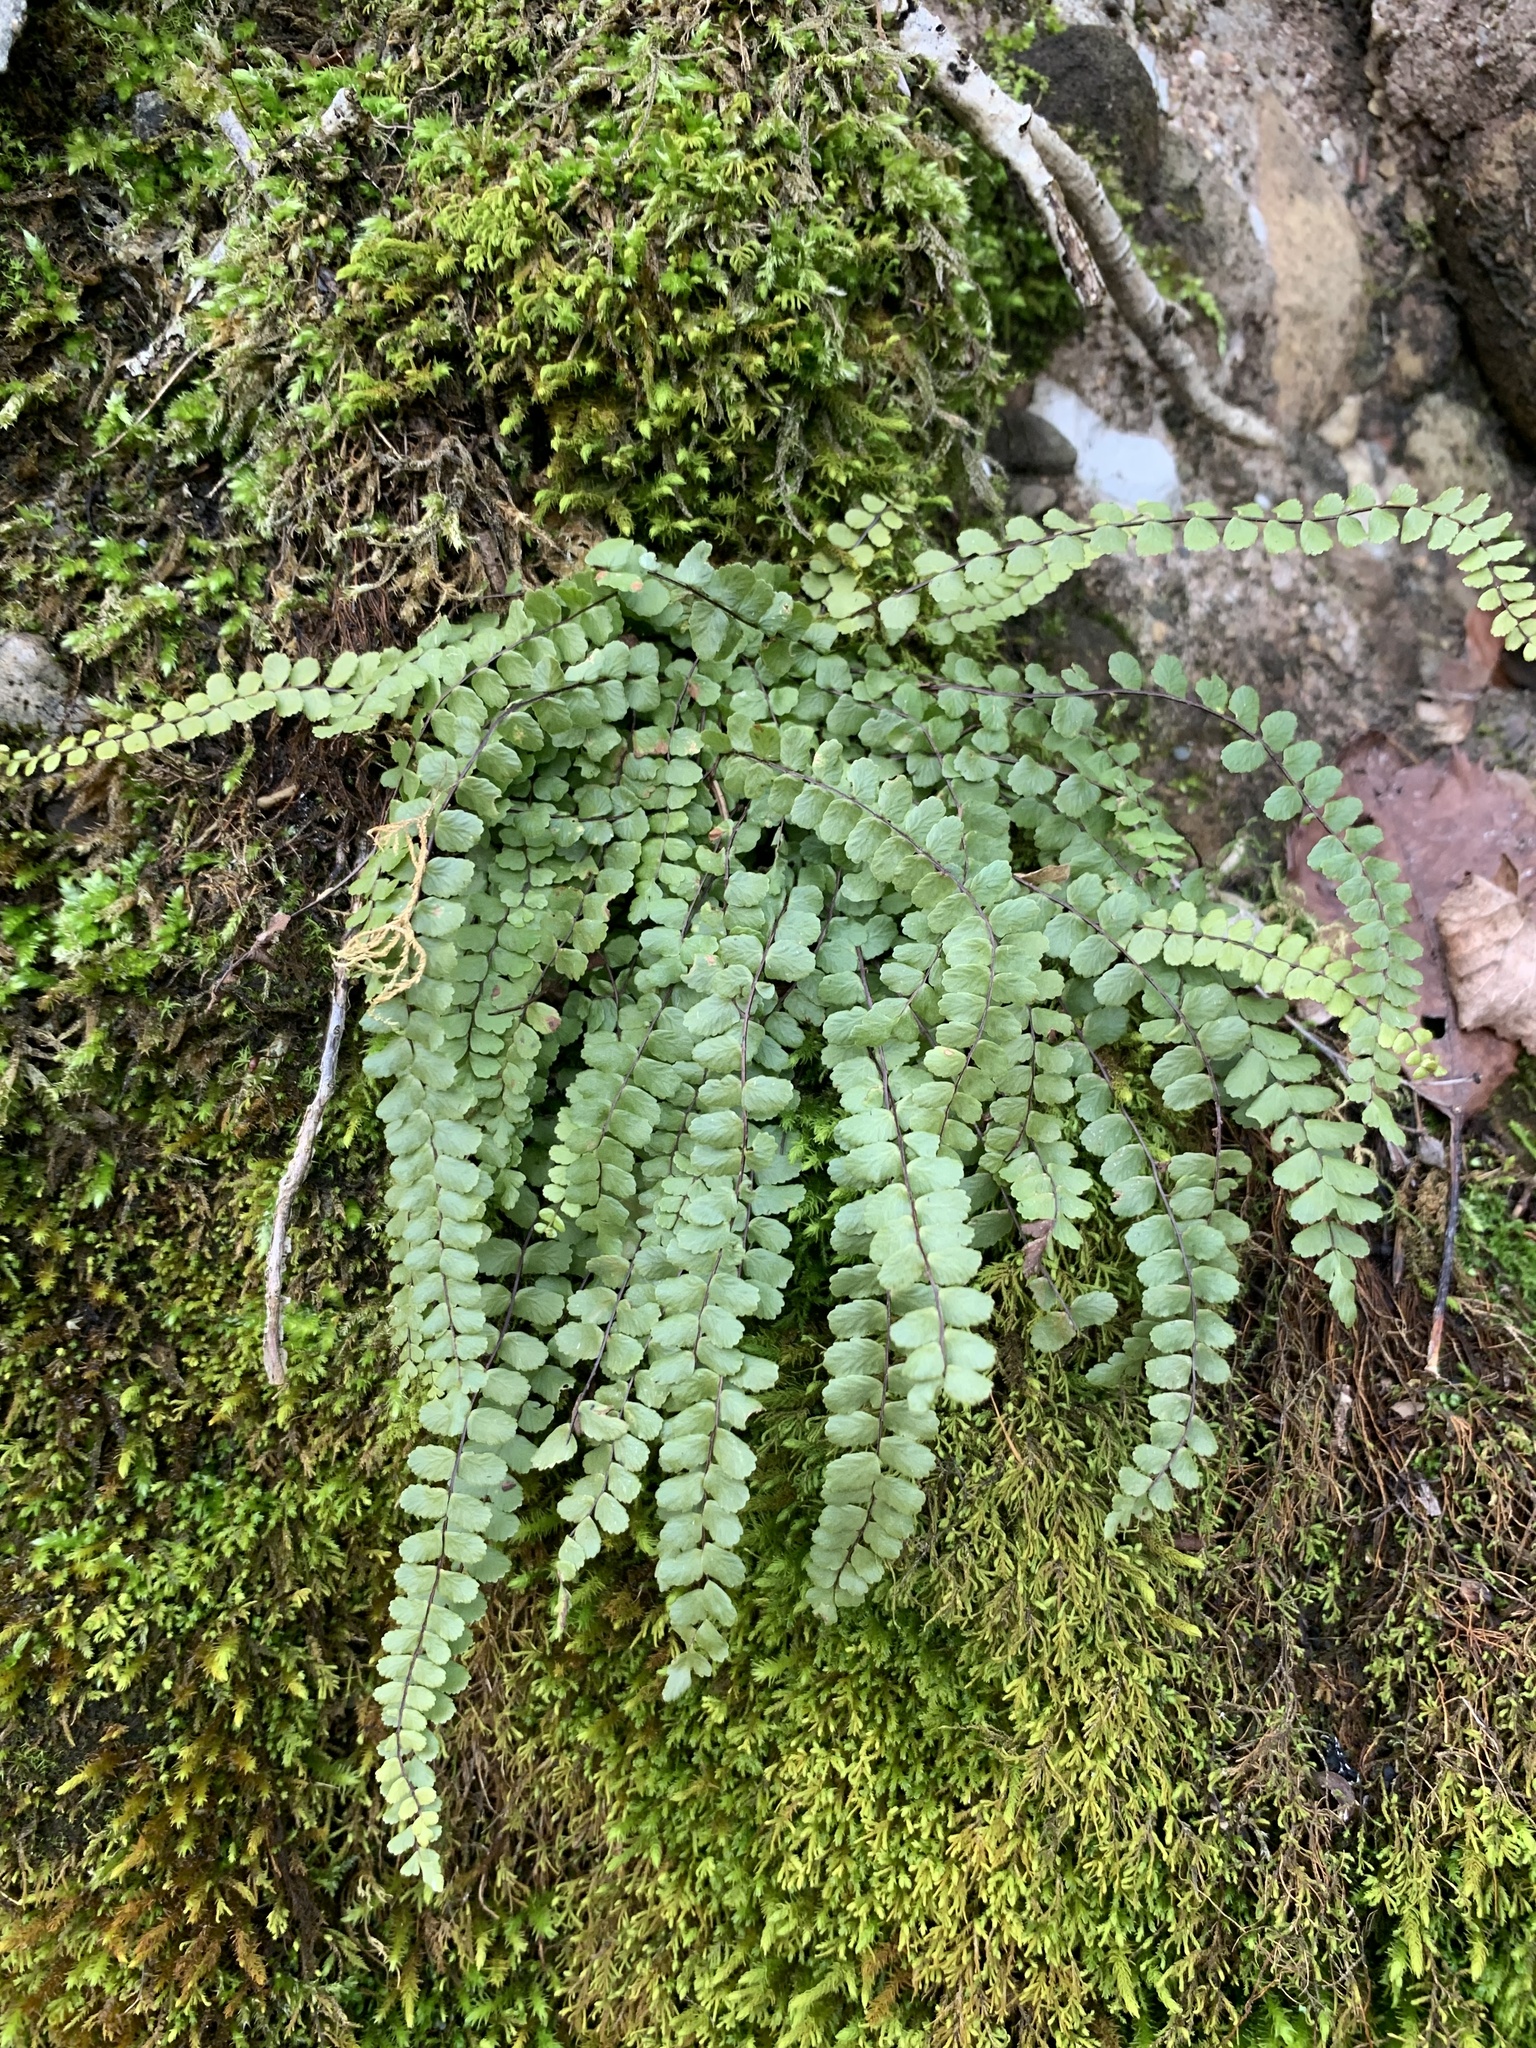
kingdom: Plantae
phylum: Tracheophyta
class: Polypodiopsida
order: Polypodiales
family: Aspleniaceae
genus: Asplenium
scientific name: Asplenium trichomanes
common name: Maidenhair spleenwort
